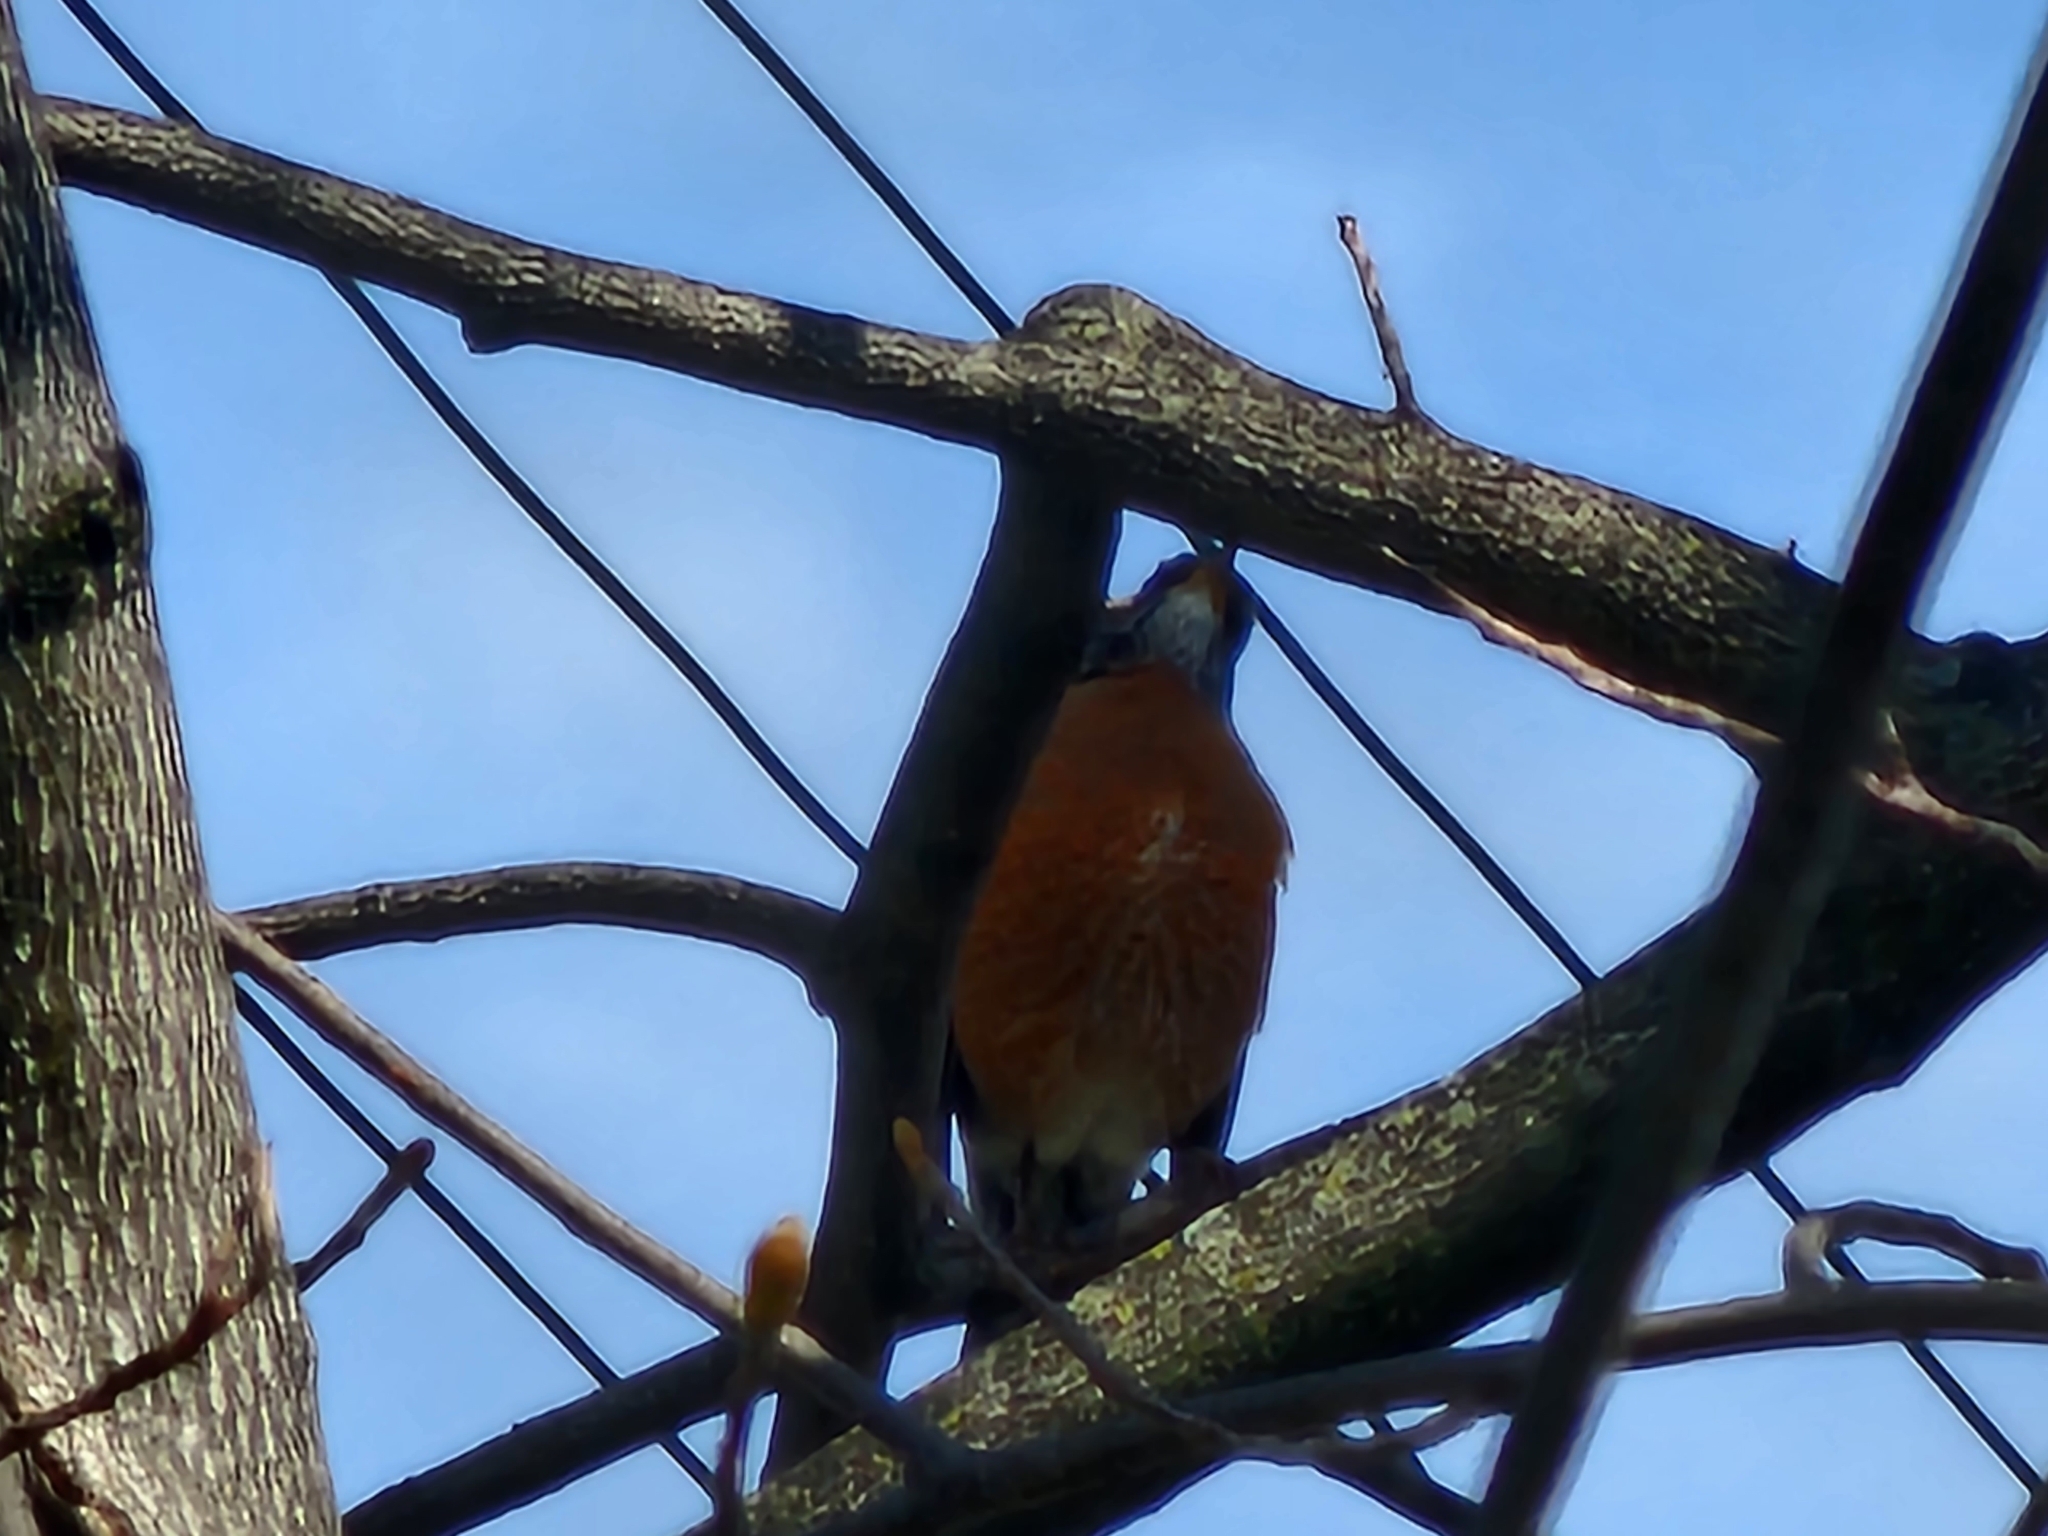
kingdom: Animalia
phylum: Chordata
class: Aves
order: Passeriformes
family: Turdidae
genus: Turdus
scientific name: Turdus migratorius
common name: American robin
